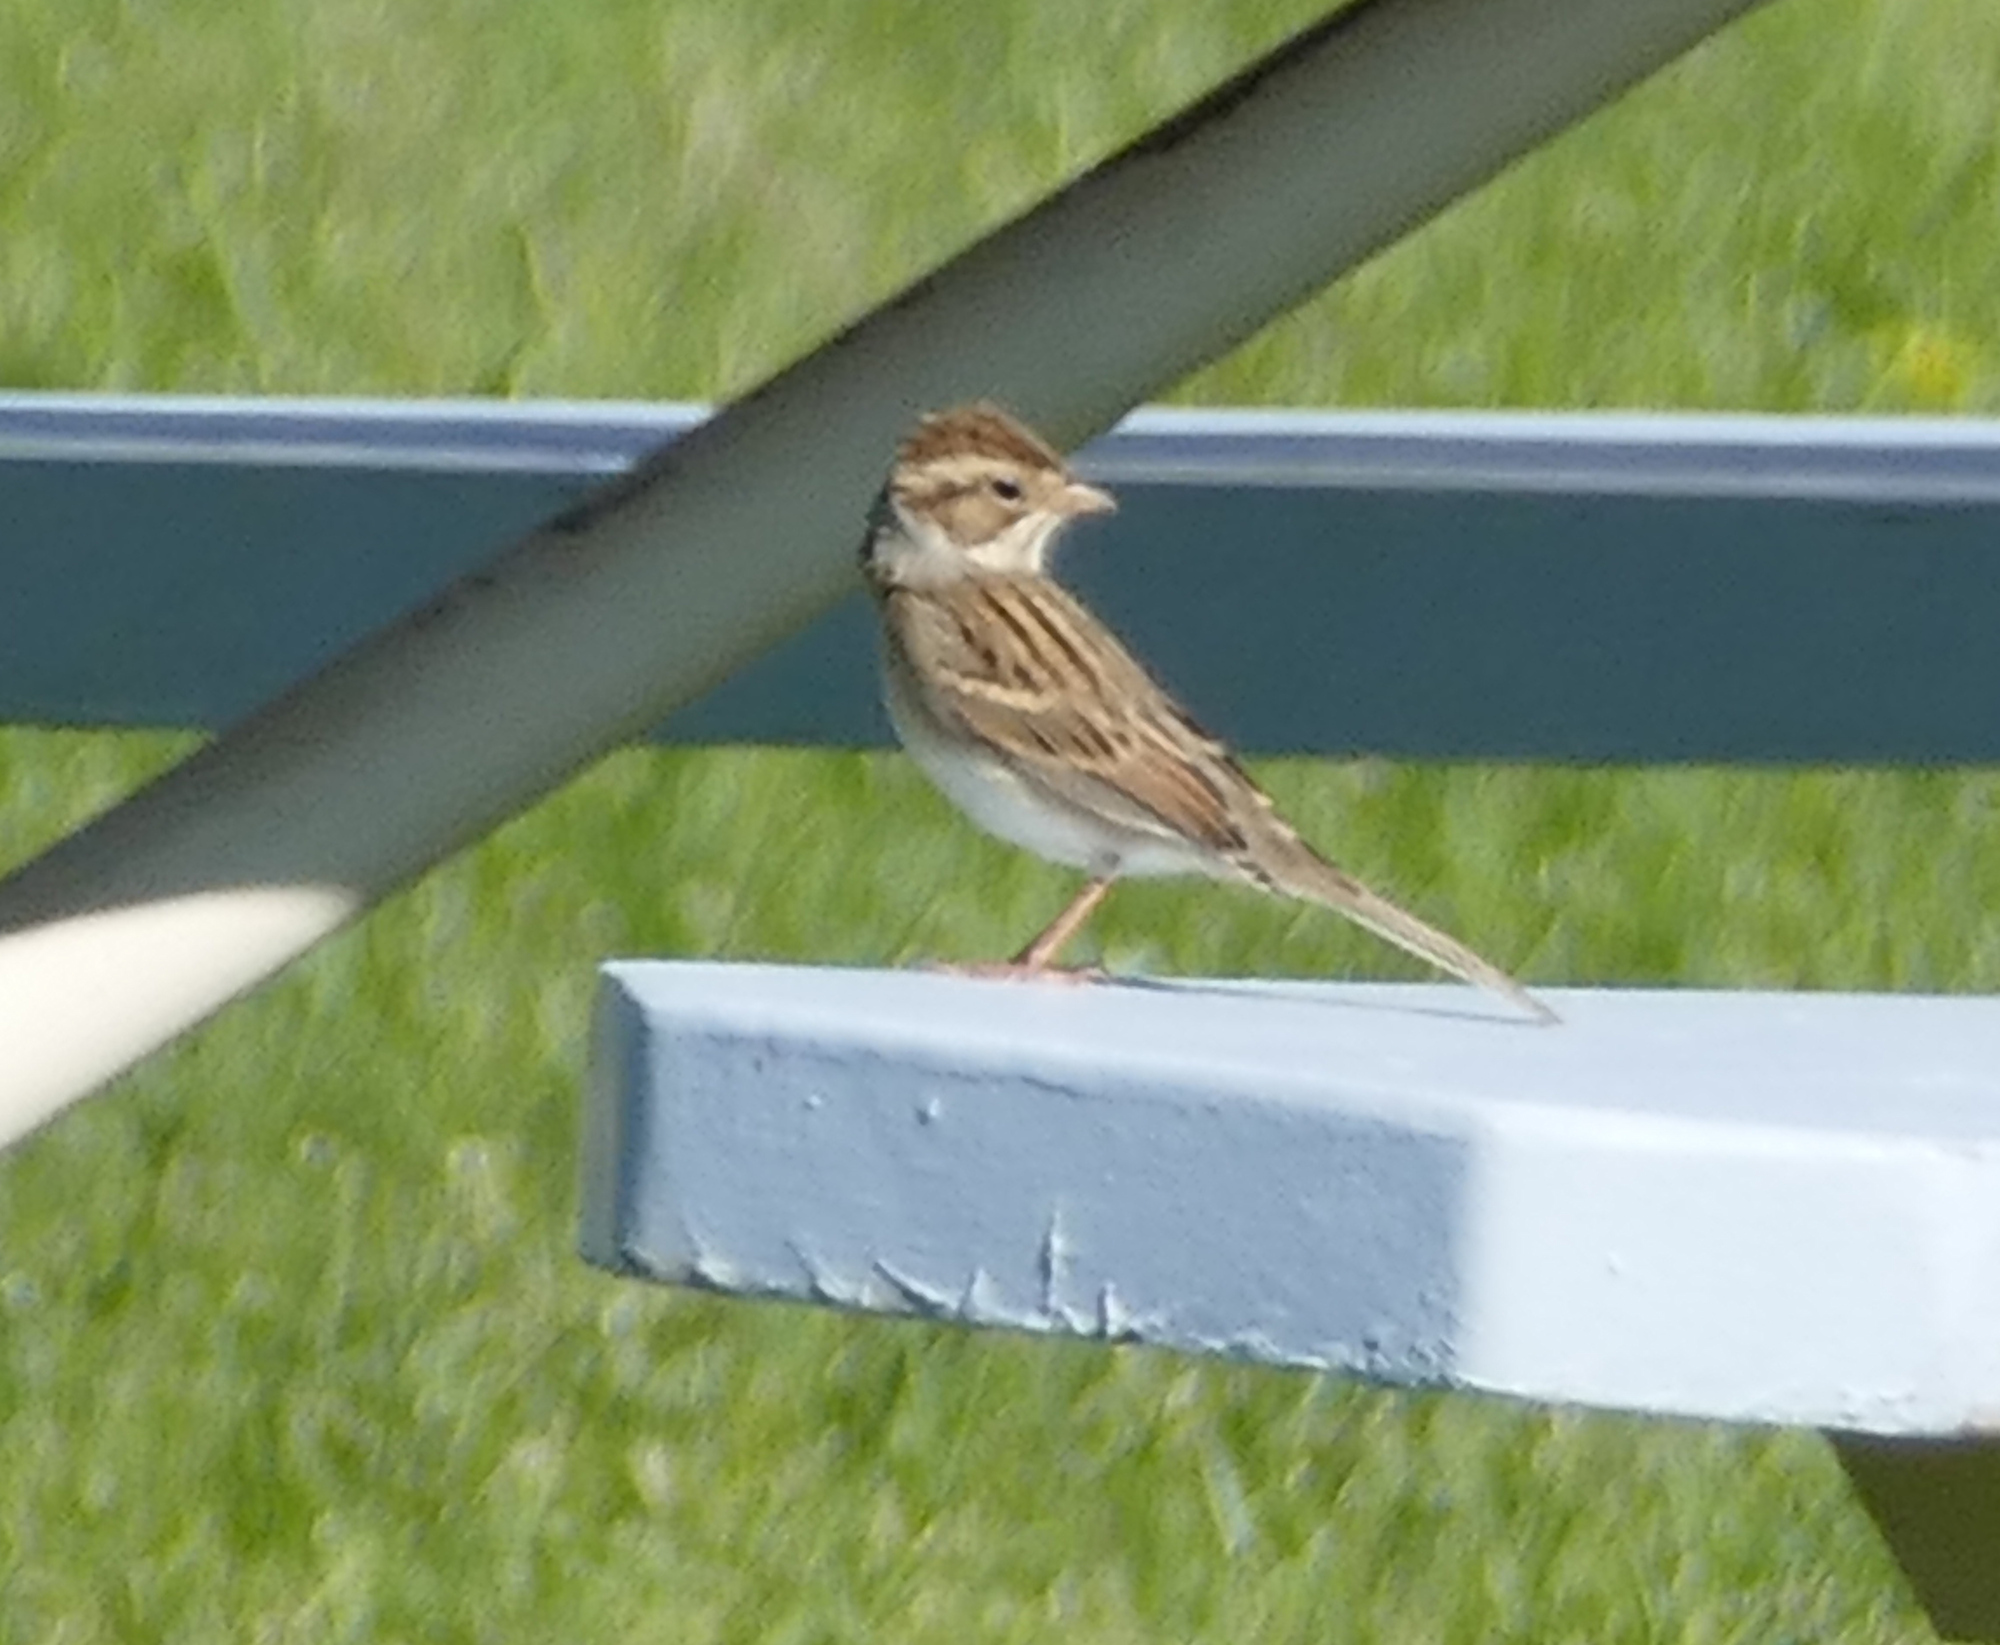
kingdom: Animalia
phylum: Chordata
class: Aves
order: Passeriformes
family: Passerellidae
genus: Spizella
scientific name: Spizella pallida
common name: Clay-colored sparrow
